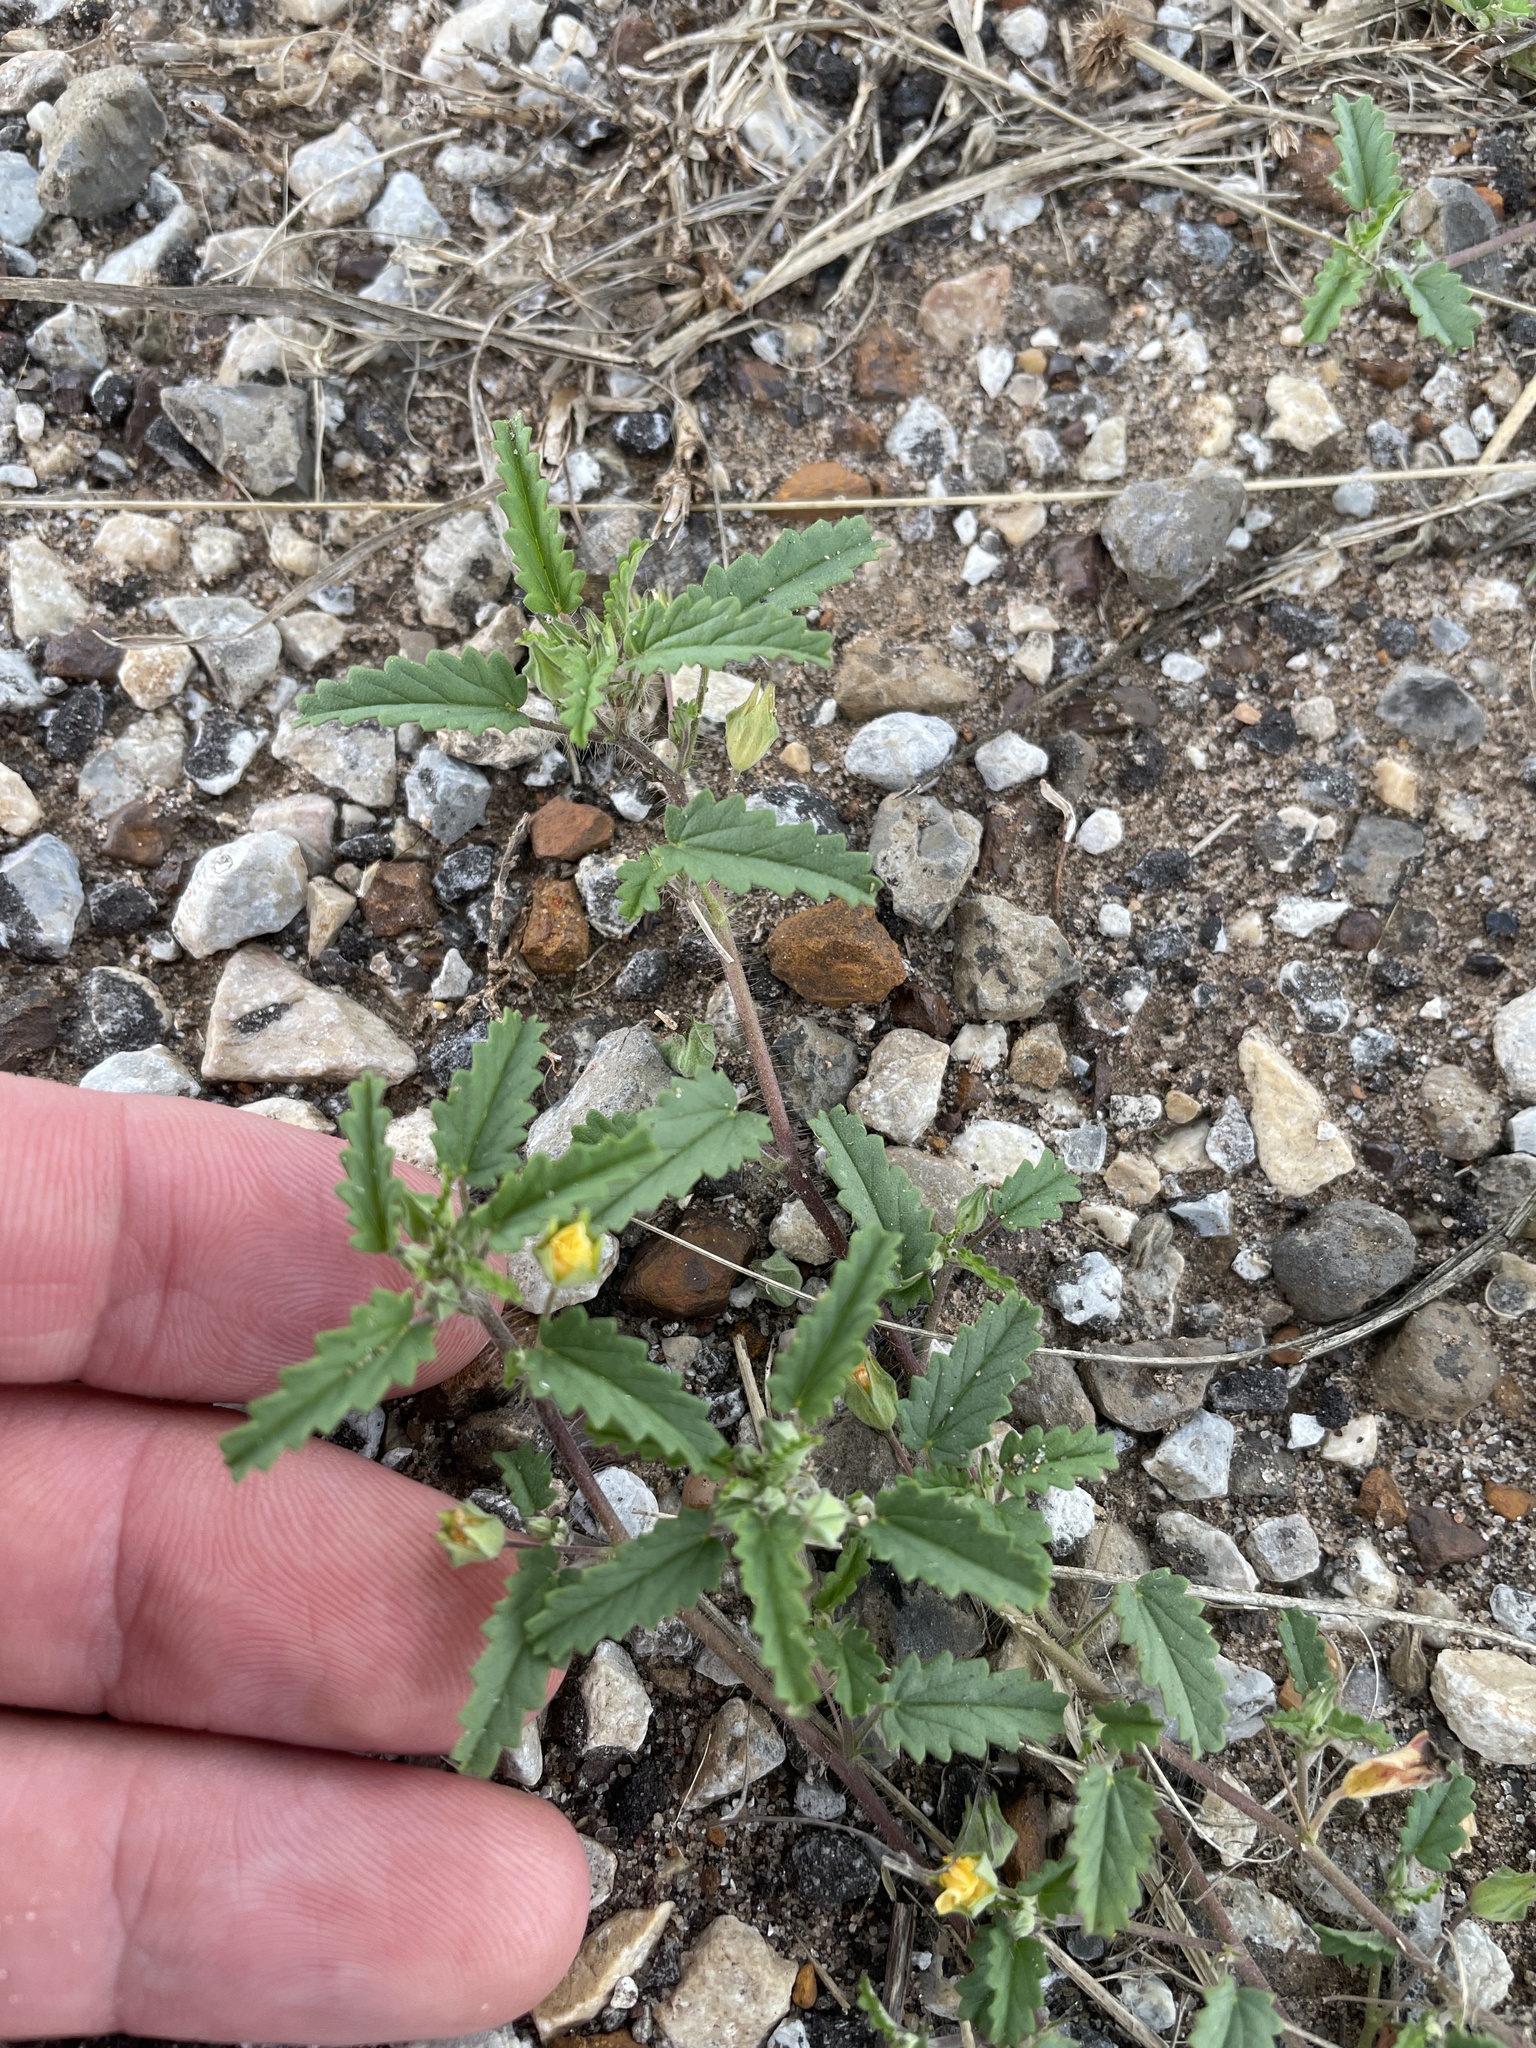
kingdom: Plantae
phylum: Tracheophyta
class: Magnoliopsida
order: Malvales
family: Malvaceae
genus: Sida
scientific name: Sida abutilifolia
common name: Spreading fanpetals
